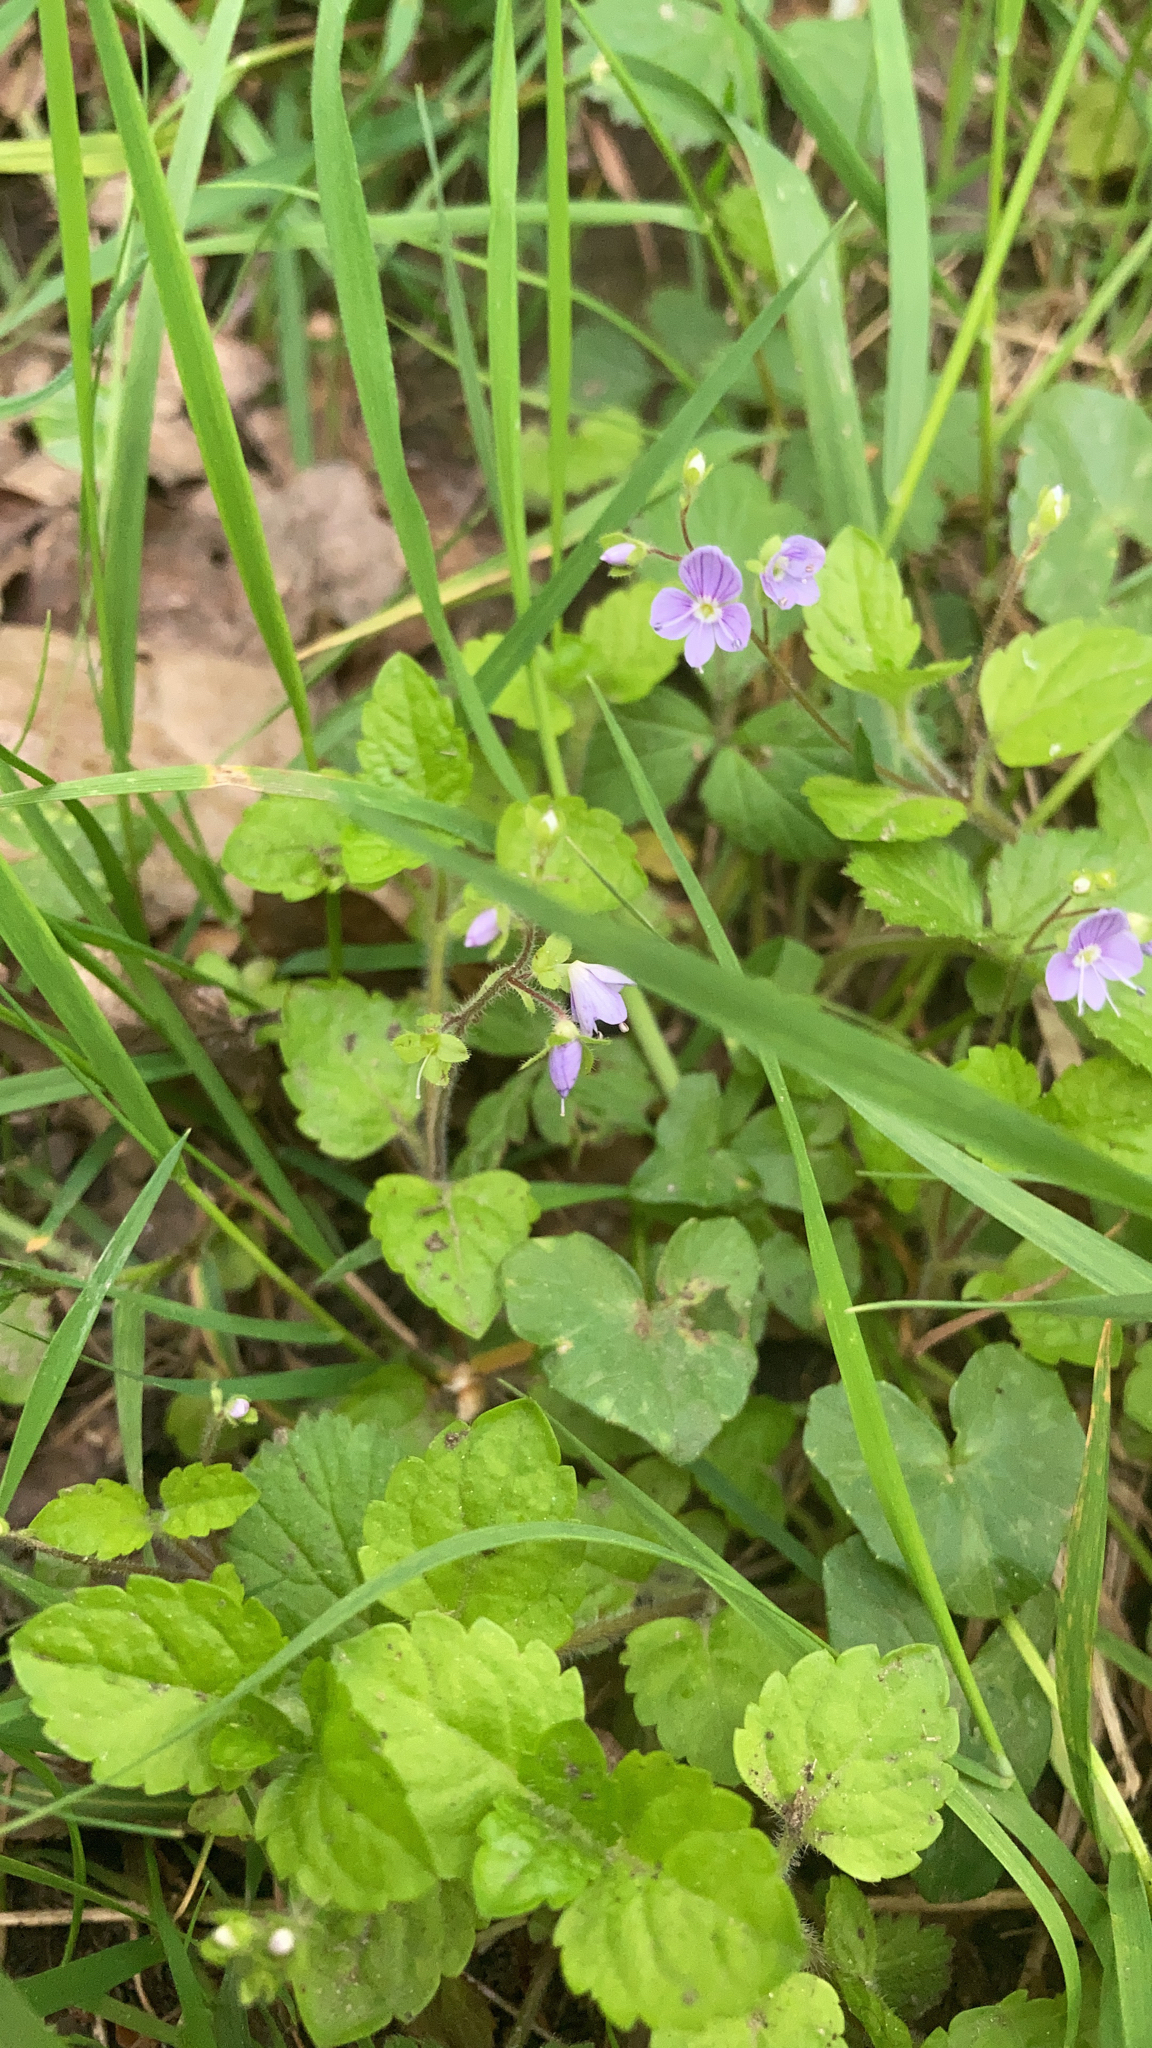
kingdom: Plantae
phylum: Tracheophyta
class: Magnoliopsida
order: Lamiales
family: Plantaginaceae
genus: Veronica
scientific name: Veronica montana
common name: Wood speedwell
